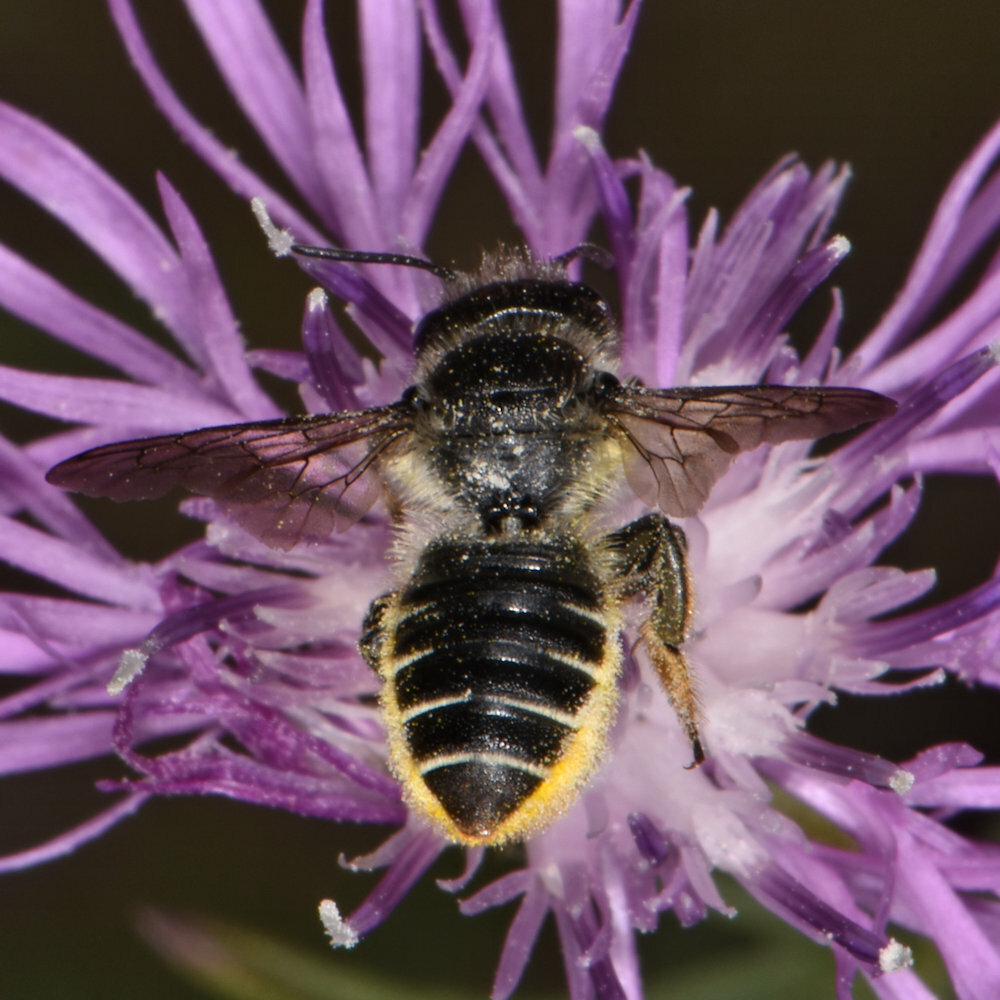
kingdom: Animalia
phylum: Arthropoda
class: Insecta
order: Hymenoptera
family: Megachilidae
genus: Megachile
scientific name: Megachile relativa
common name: Golden-tailed leafcutter
